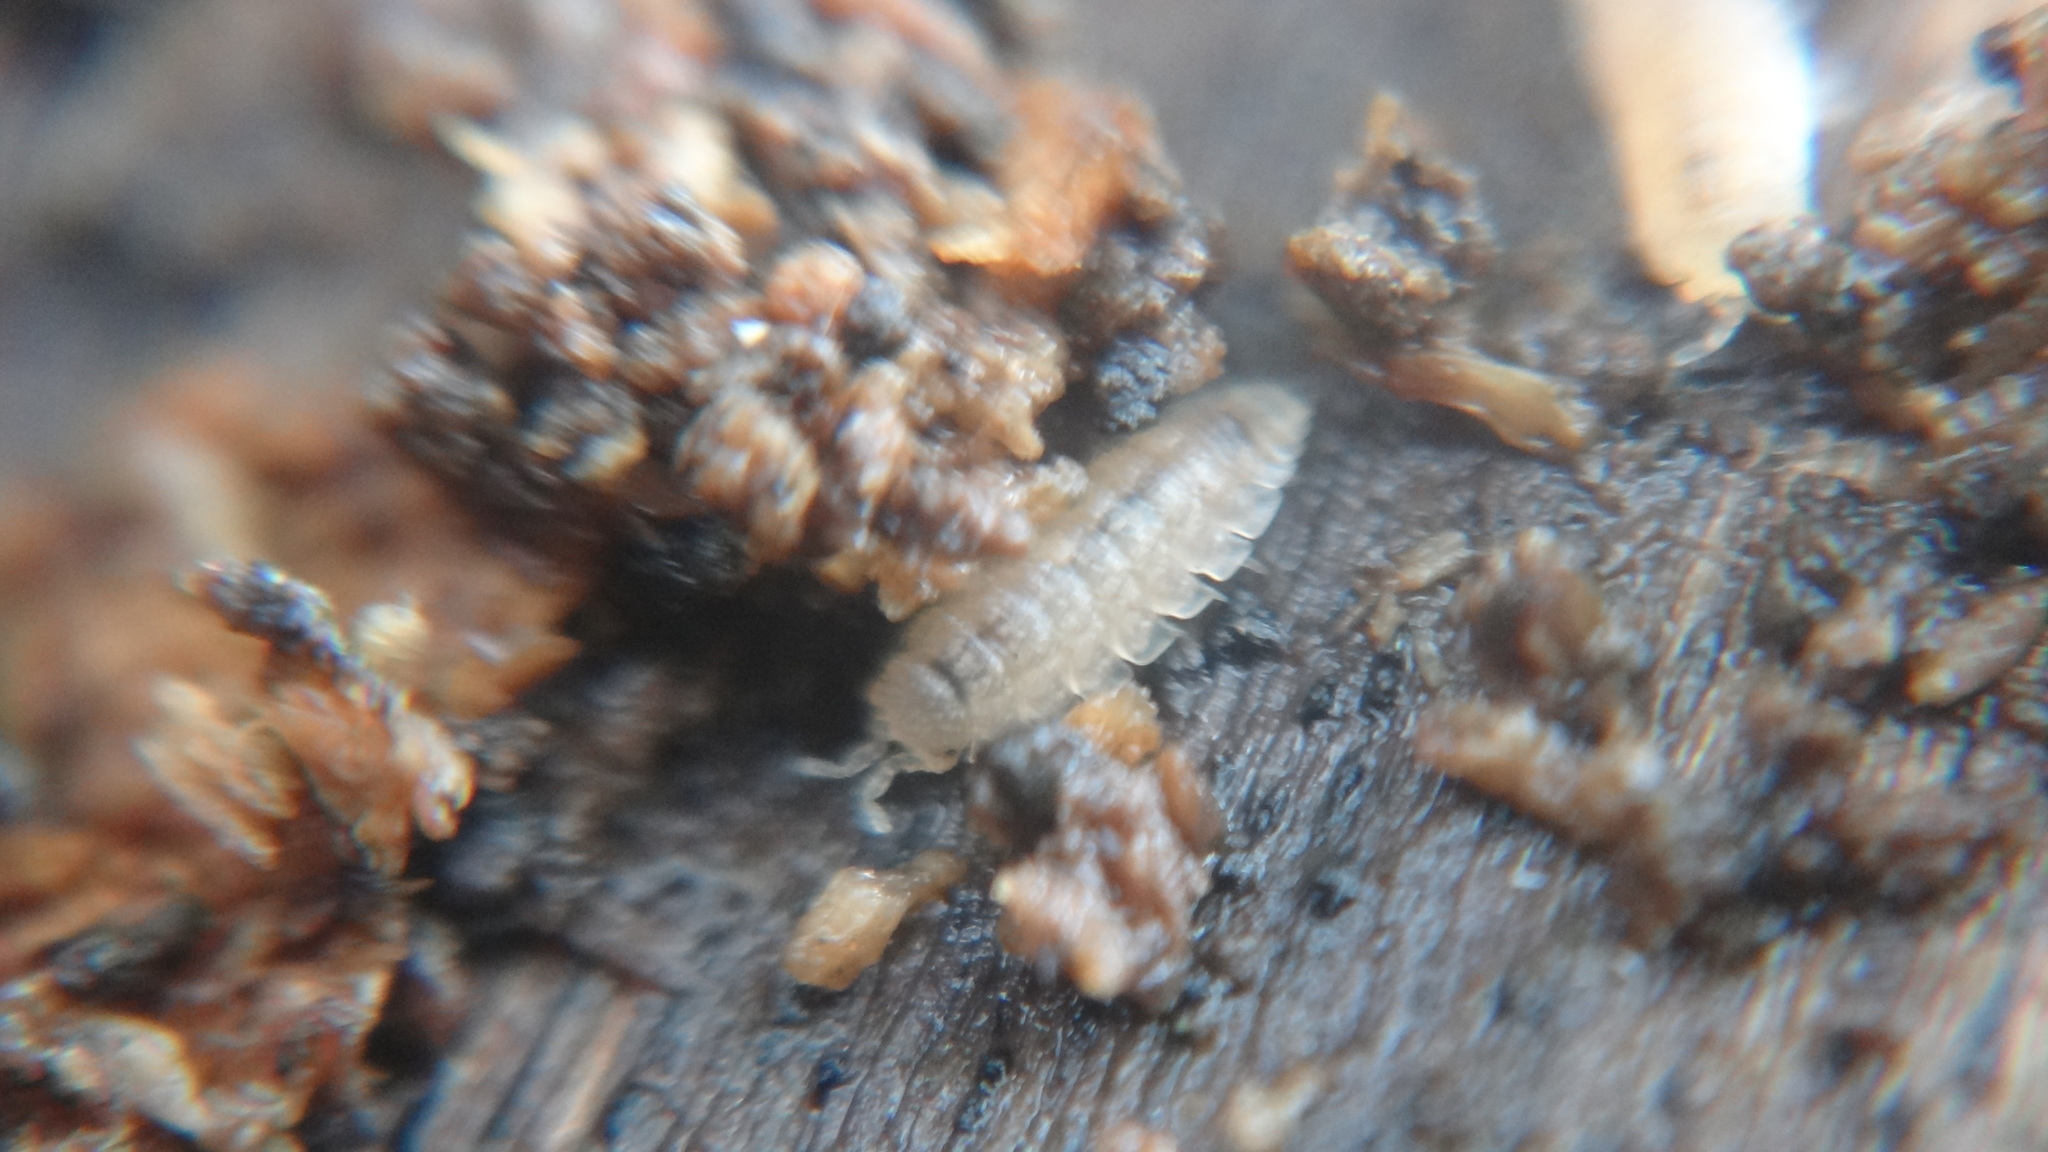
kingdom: Animalia
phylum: Arthropoda
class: Malacostraca
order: Isopoda
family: Trichoniscidae
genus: Haplophthalmus
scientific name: Haplophthalmus danicus
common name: Pillbug
